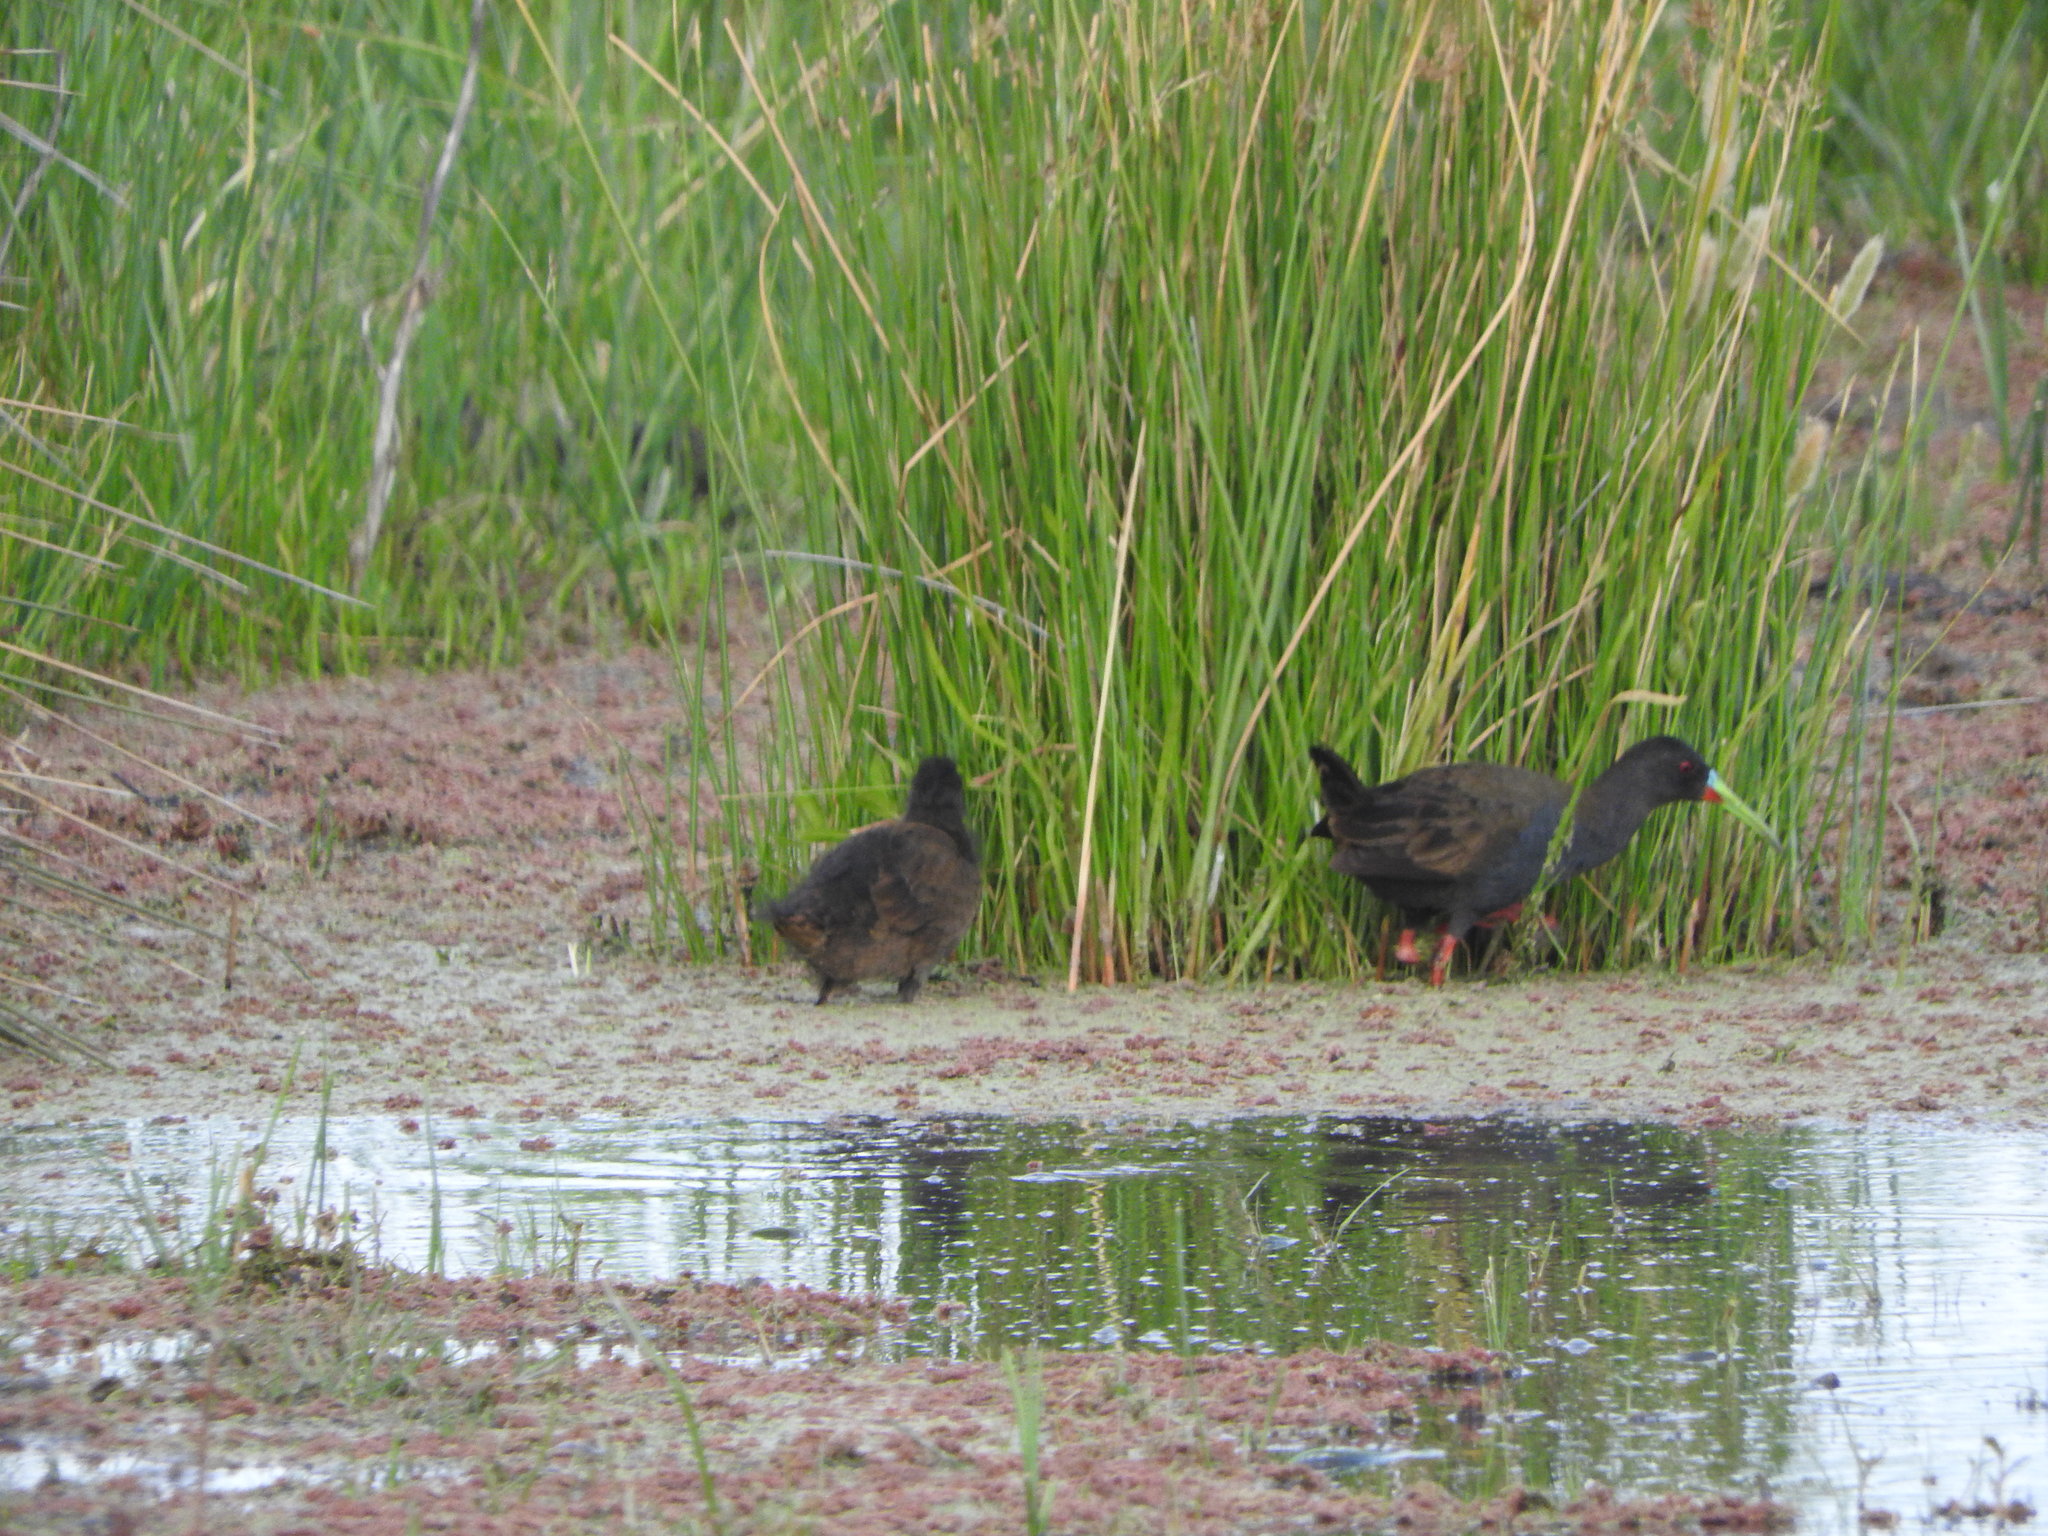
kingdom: Animalia
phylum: Chordata
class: Aves
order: Gruiformes
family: Rallidae
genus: Pardirallus
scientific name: Pardirallus sanguinolentus
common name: Plumbeous rail
